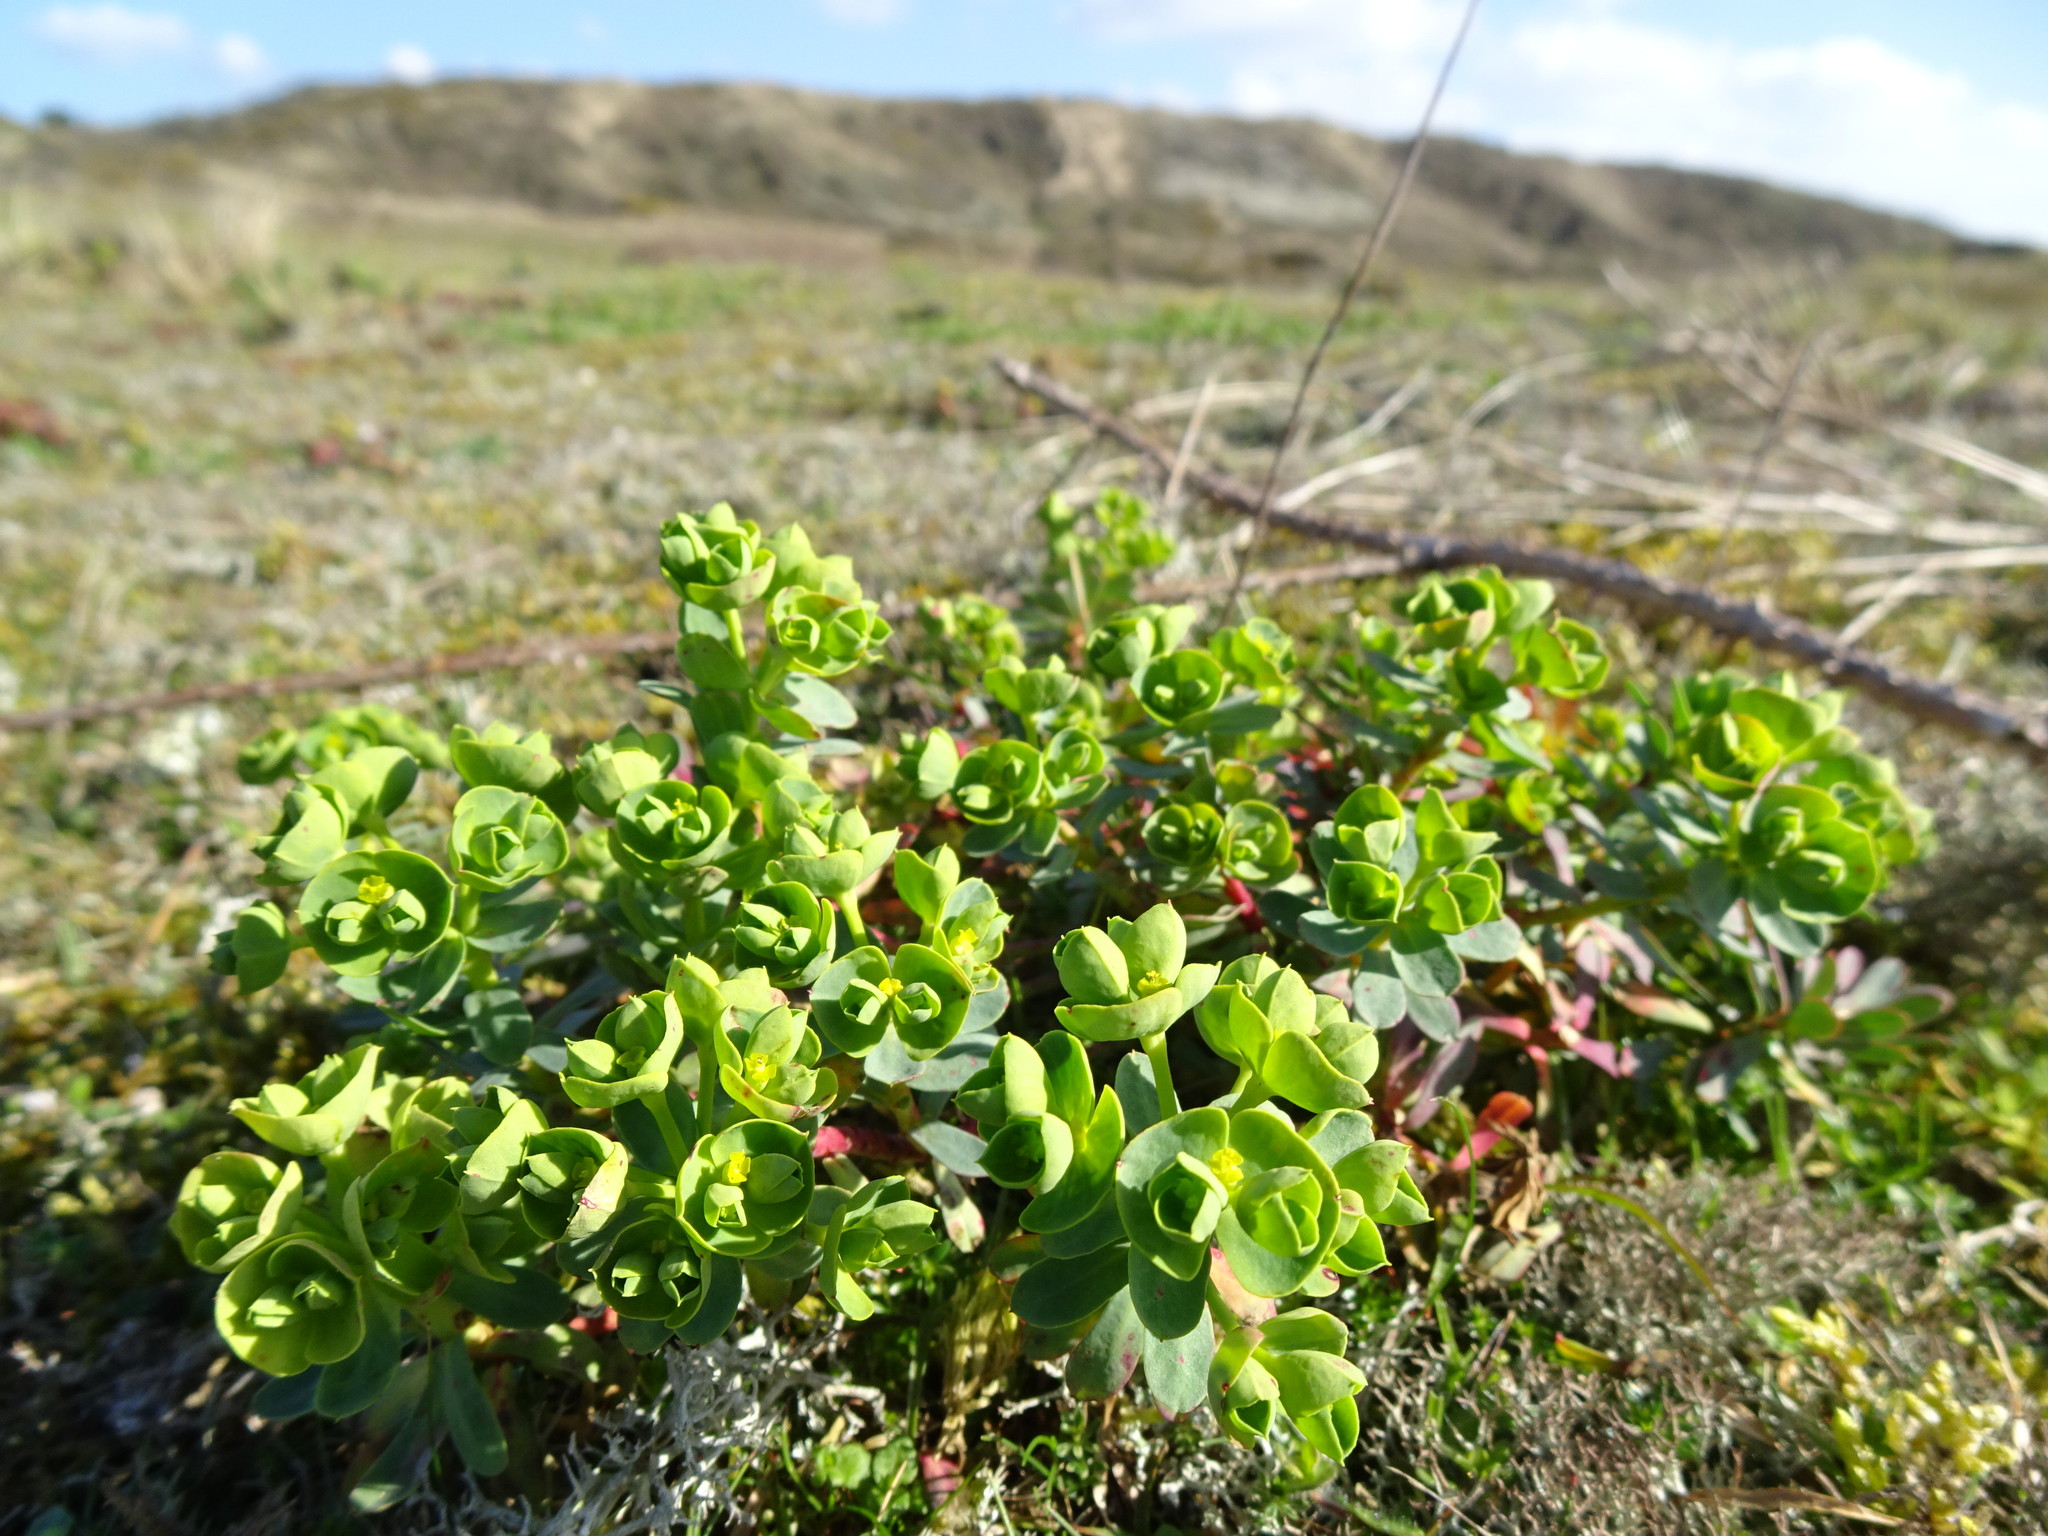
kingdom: Plantae
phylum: Tracheophyta
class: Magnoliopsida
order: Malpighiales
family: Euphorbiaceae
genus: Euphorbia
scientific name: Euphorbia portlandica
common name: Portland spurge
